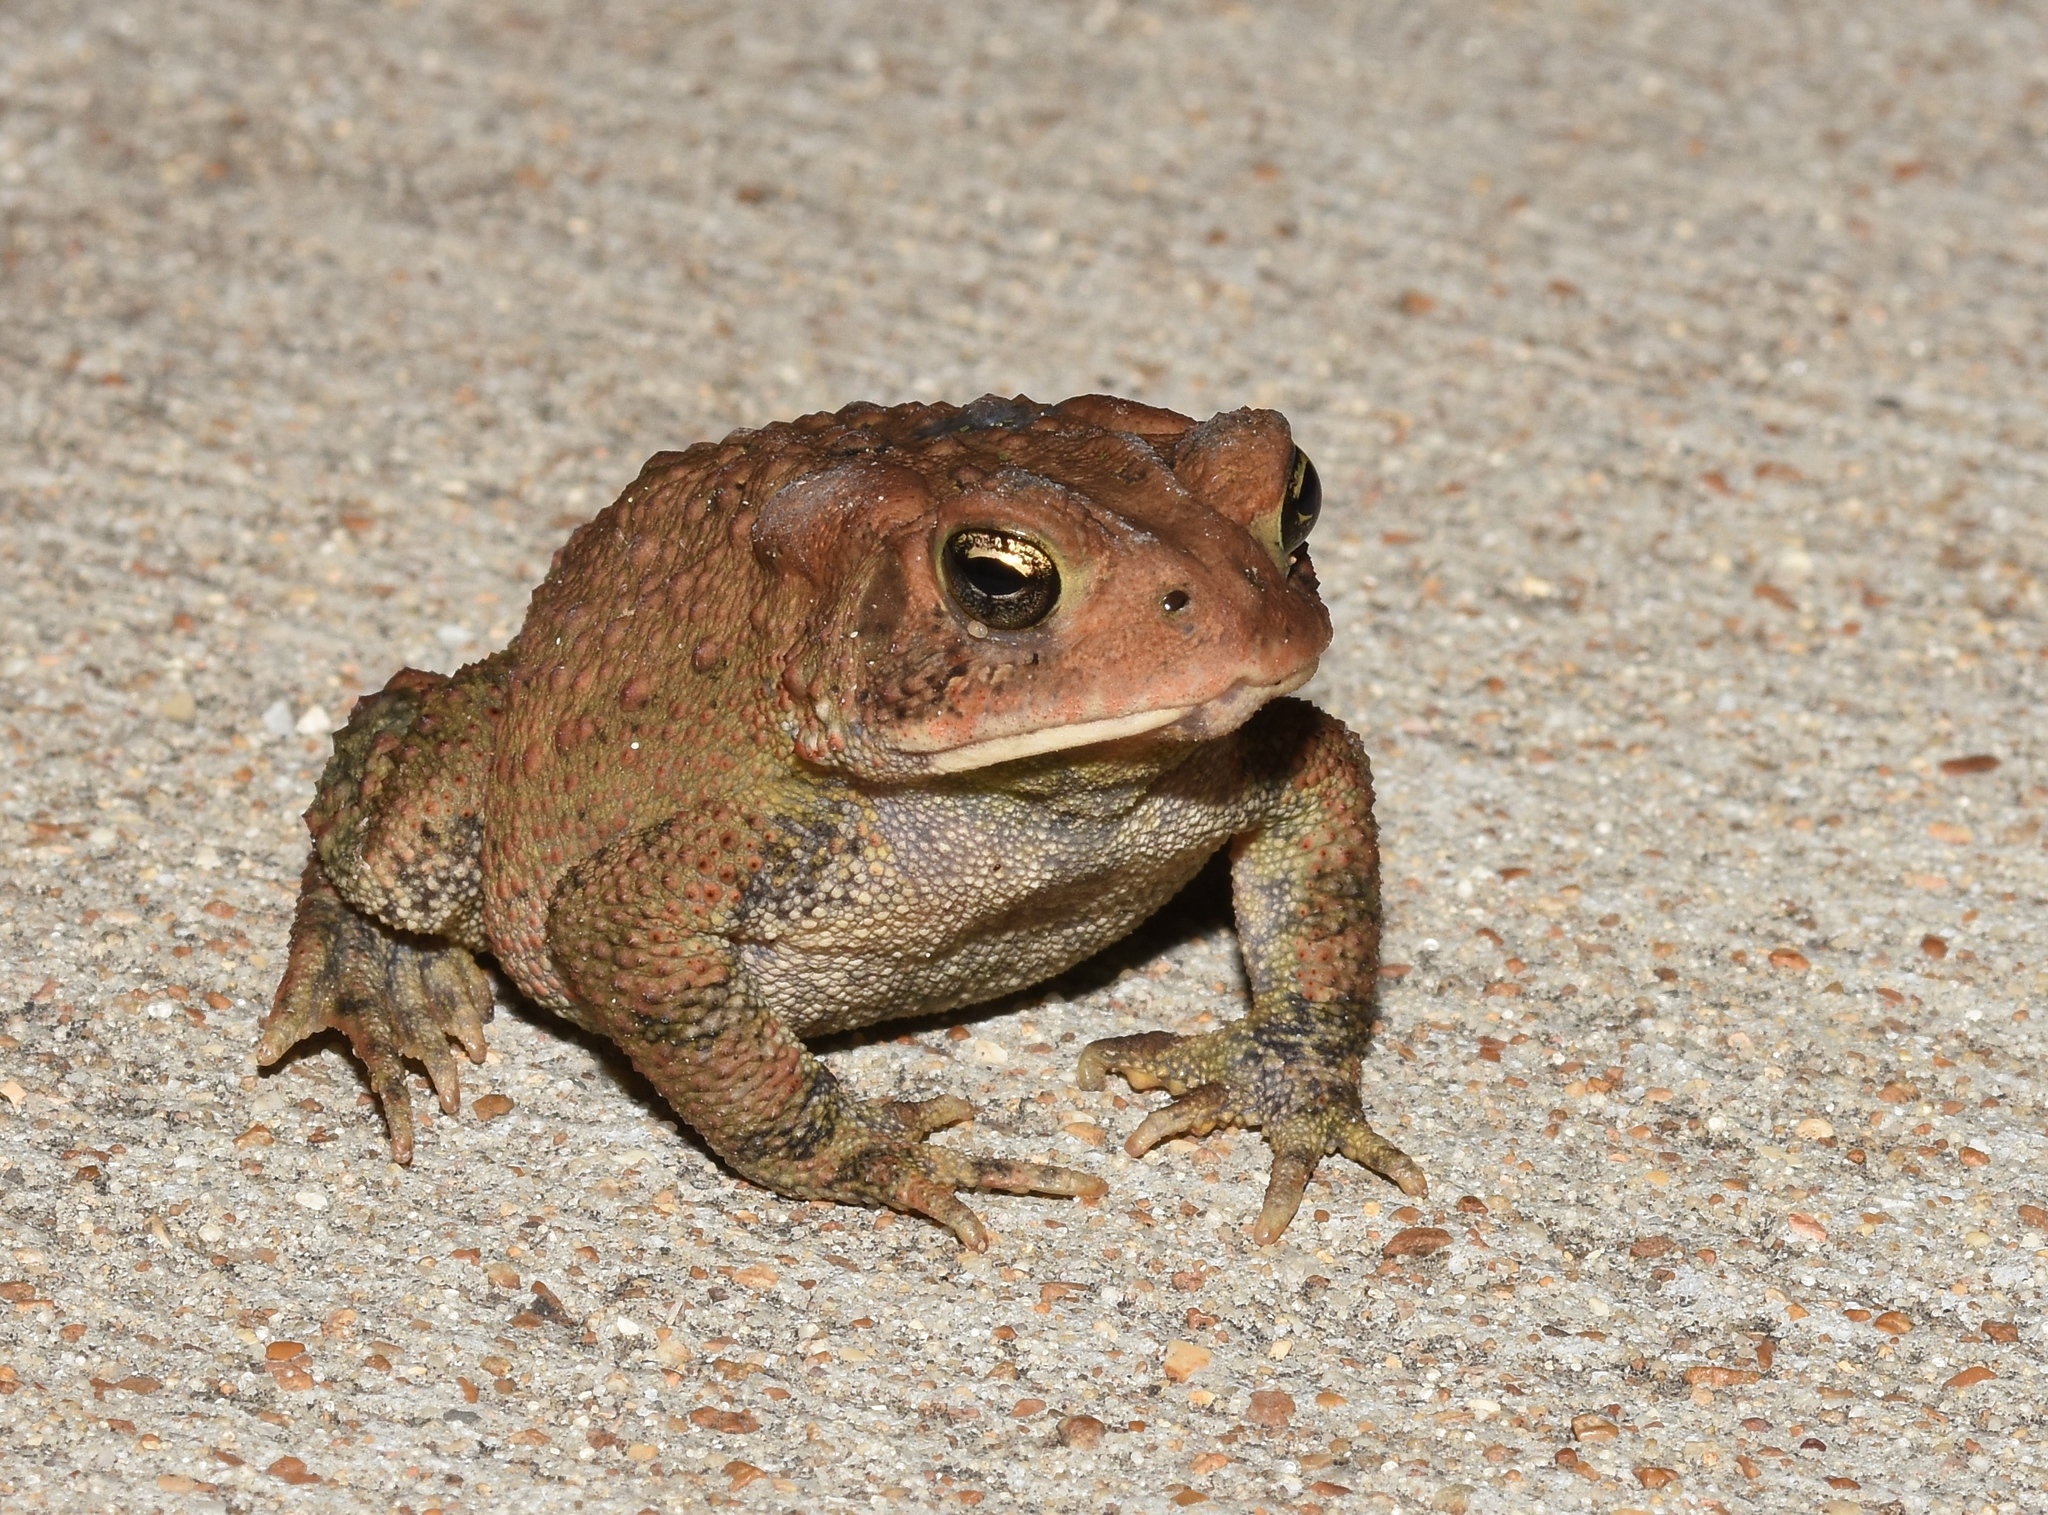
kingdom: Animalia
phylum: Chordata
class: Amphibia
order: Anura
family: Bufonidae
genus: Anaxyrus
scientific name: Anaxyrus americanus
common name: American toad
